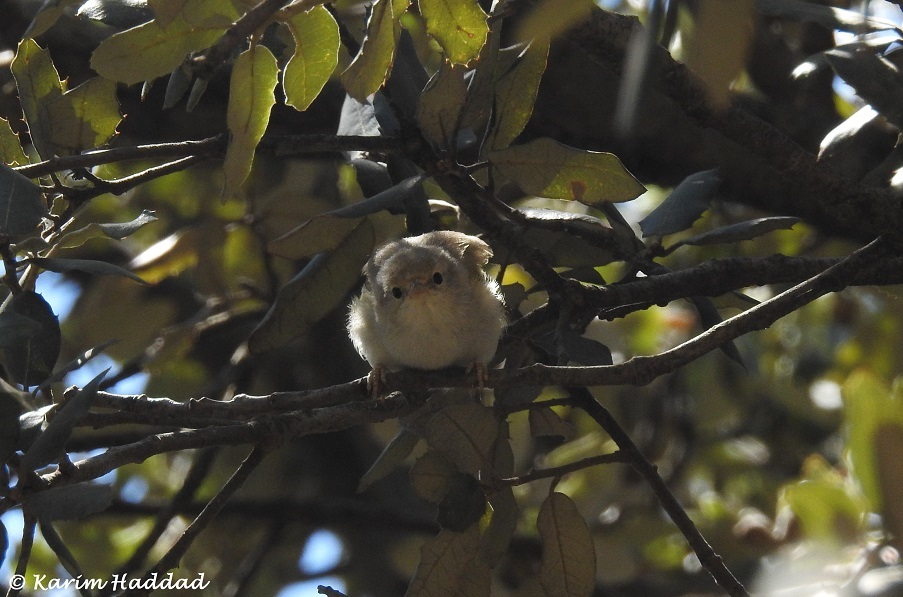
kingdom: Animalia
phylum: Chordata
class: Aves
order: Passeriformes
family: Phylloscopidae
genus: Phylloscopus
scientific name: Phylloscopus bonelli
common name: Western bonelli's warbler
